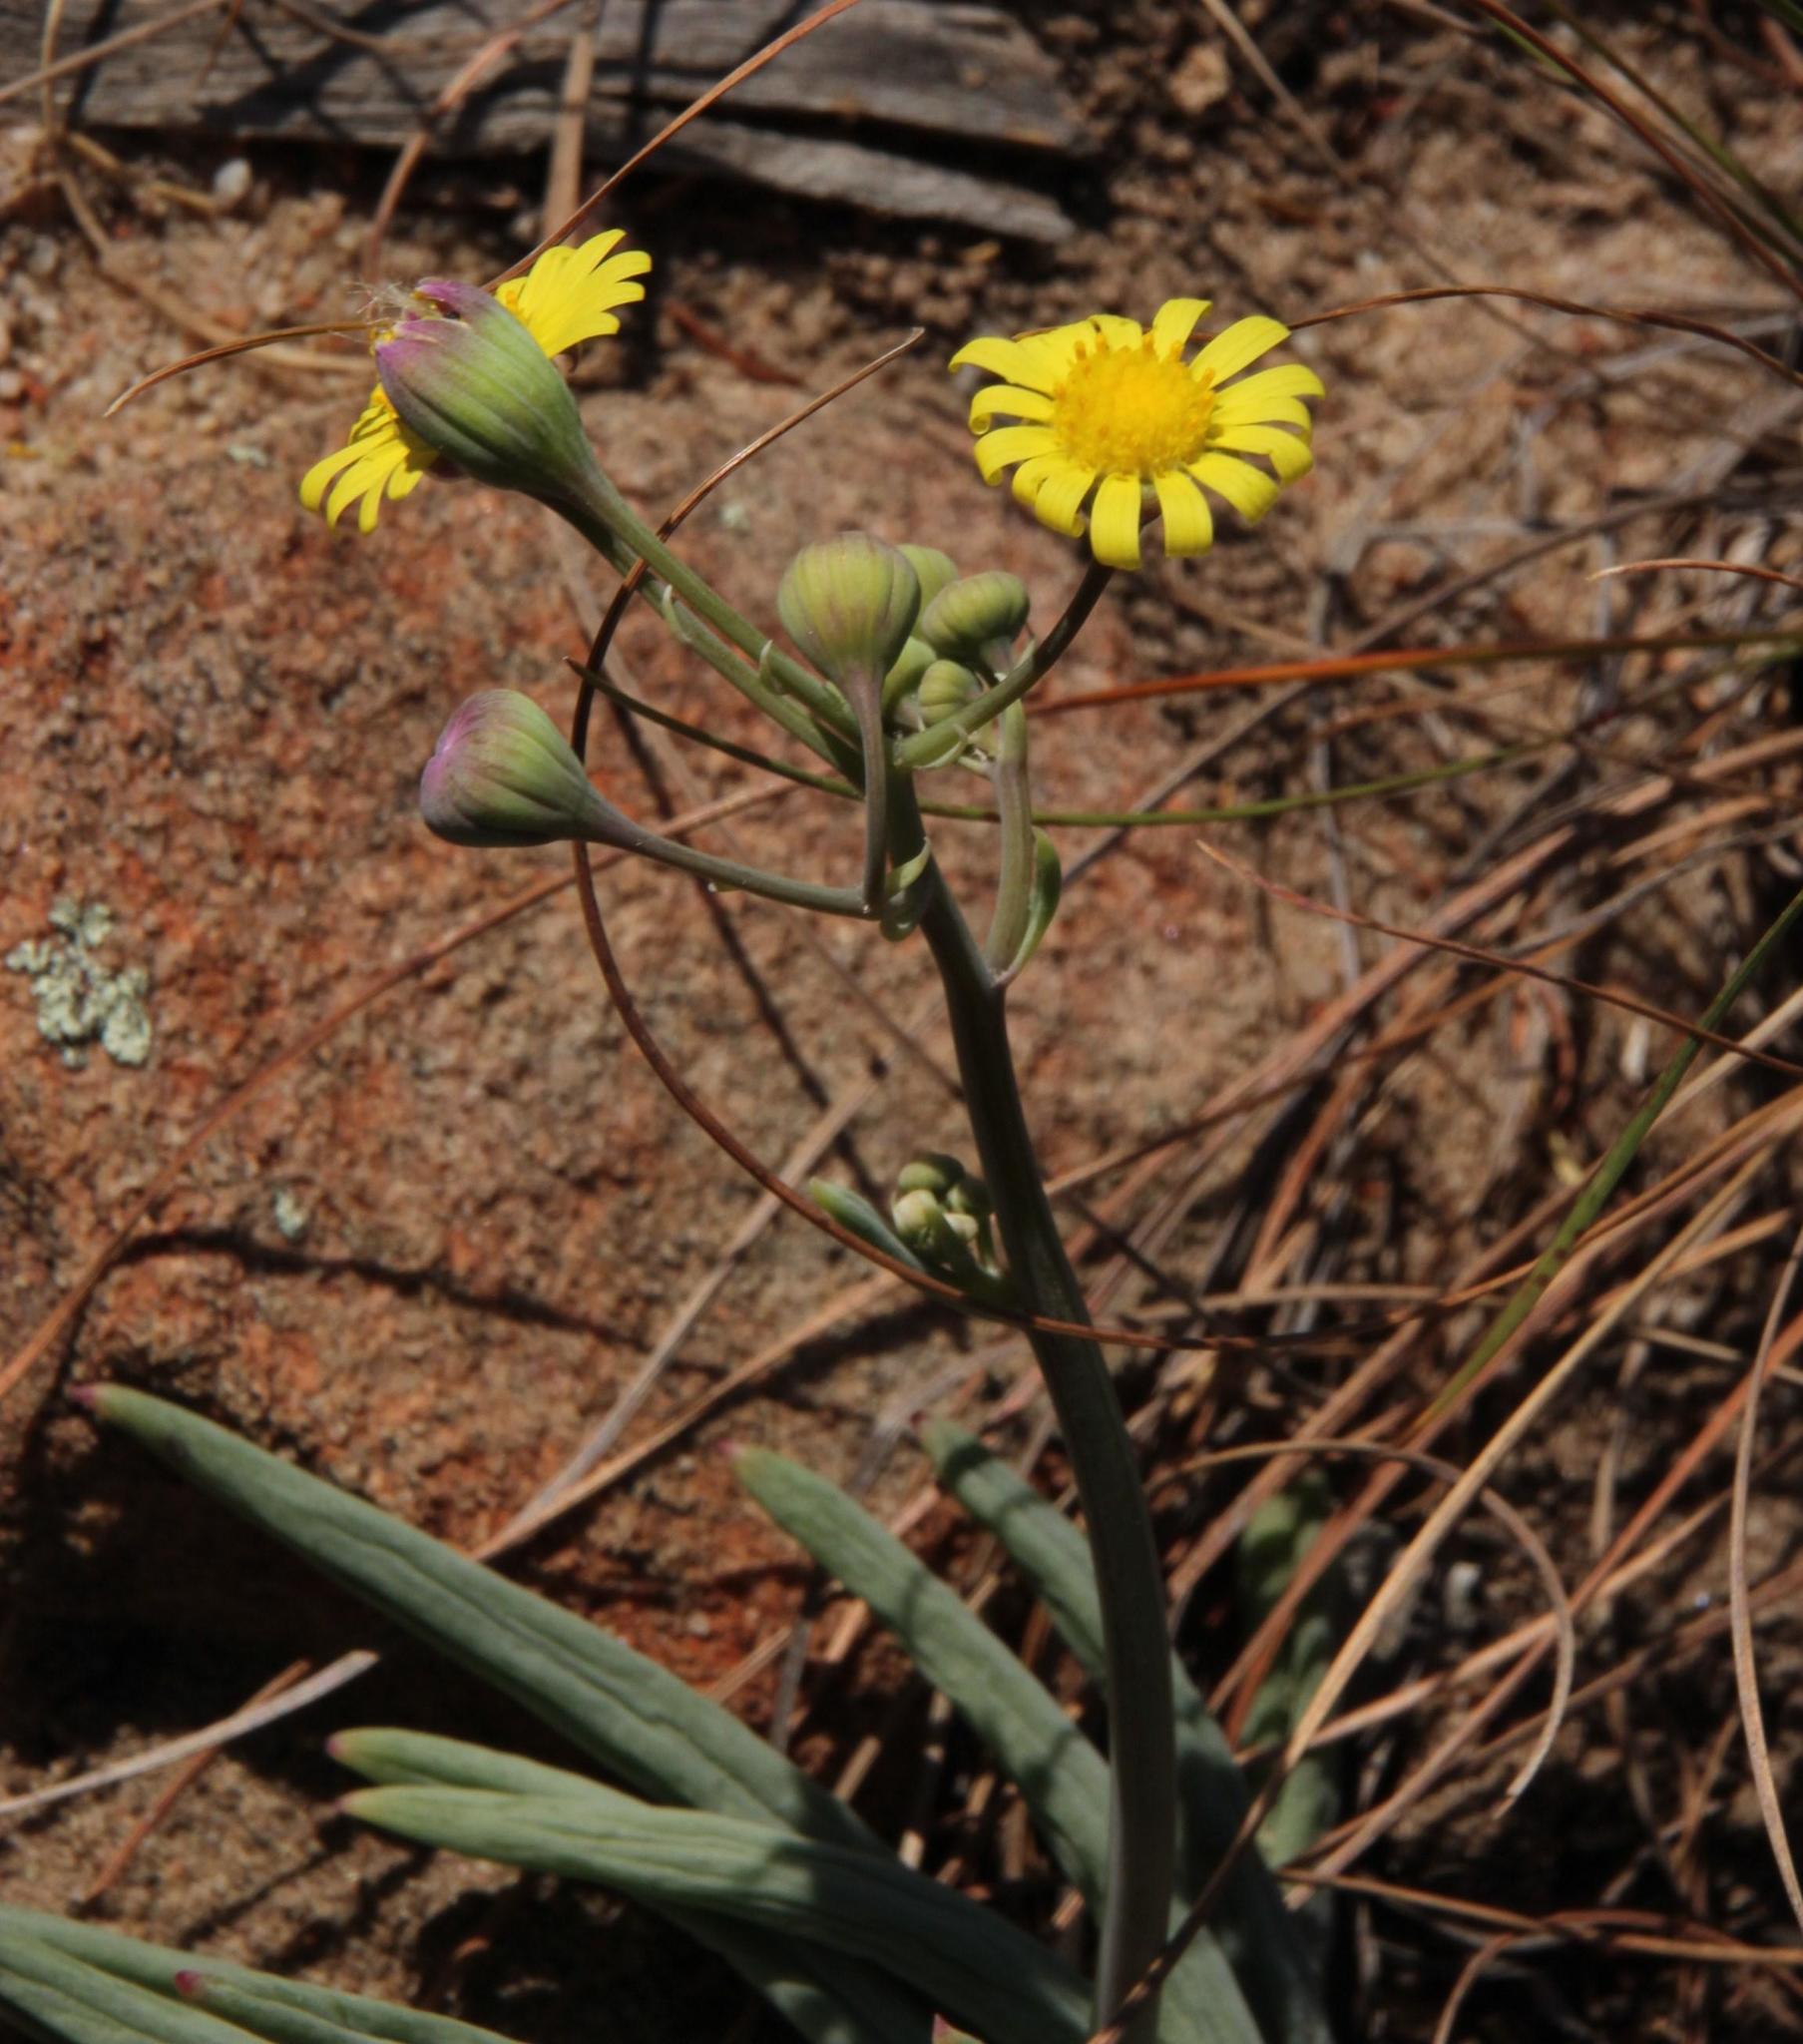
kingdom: Plantae
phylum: Tracheophyta
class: Magnoliopsida
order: Asterales
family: Asteraceae
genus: Crassothonna
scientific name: Crassothonna cacalioides
